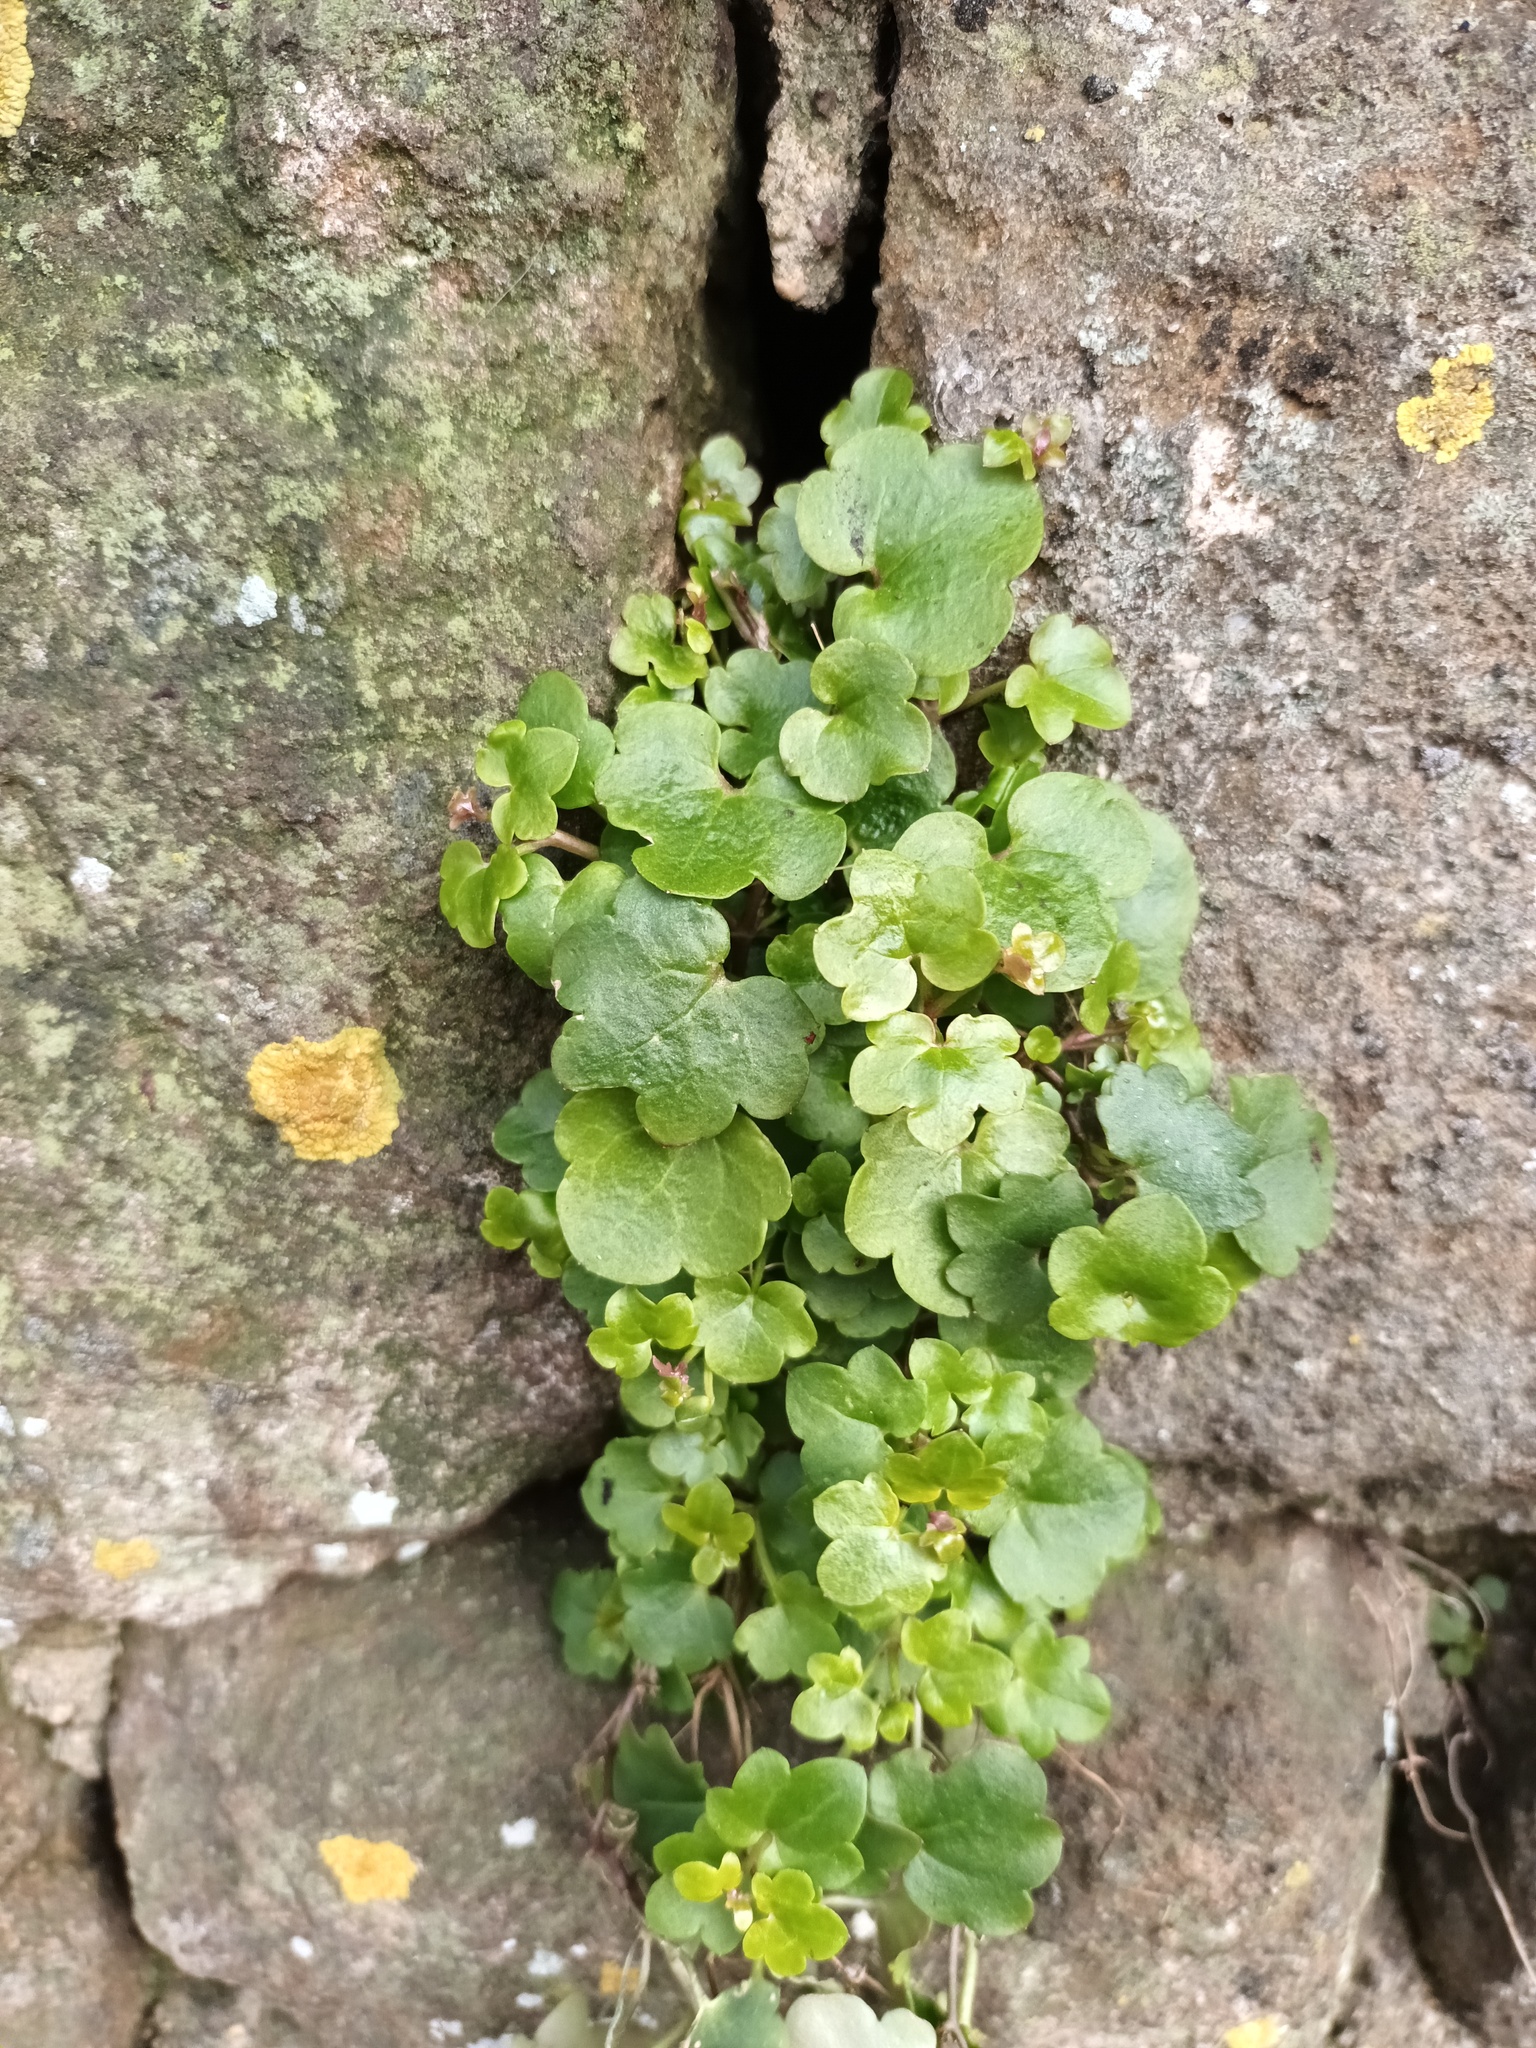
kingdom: Plantae
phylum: Tracheophyta
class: Magnoliopsida
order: Lamiales
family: Plantaginaceae
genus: Cymbalaria
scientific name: Cymbalaria muralis
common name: Ivy-leaved toadflax
